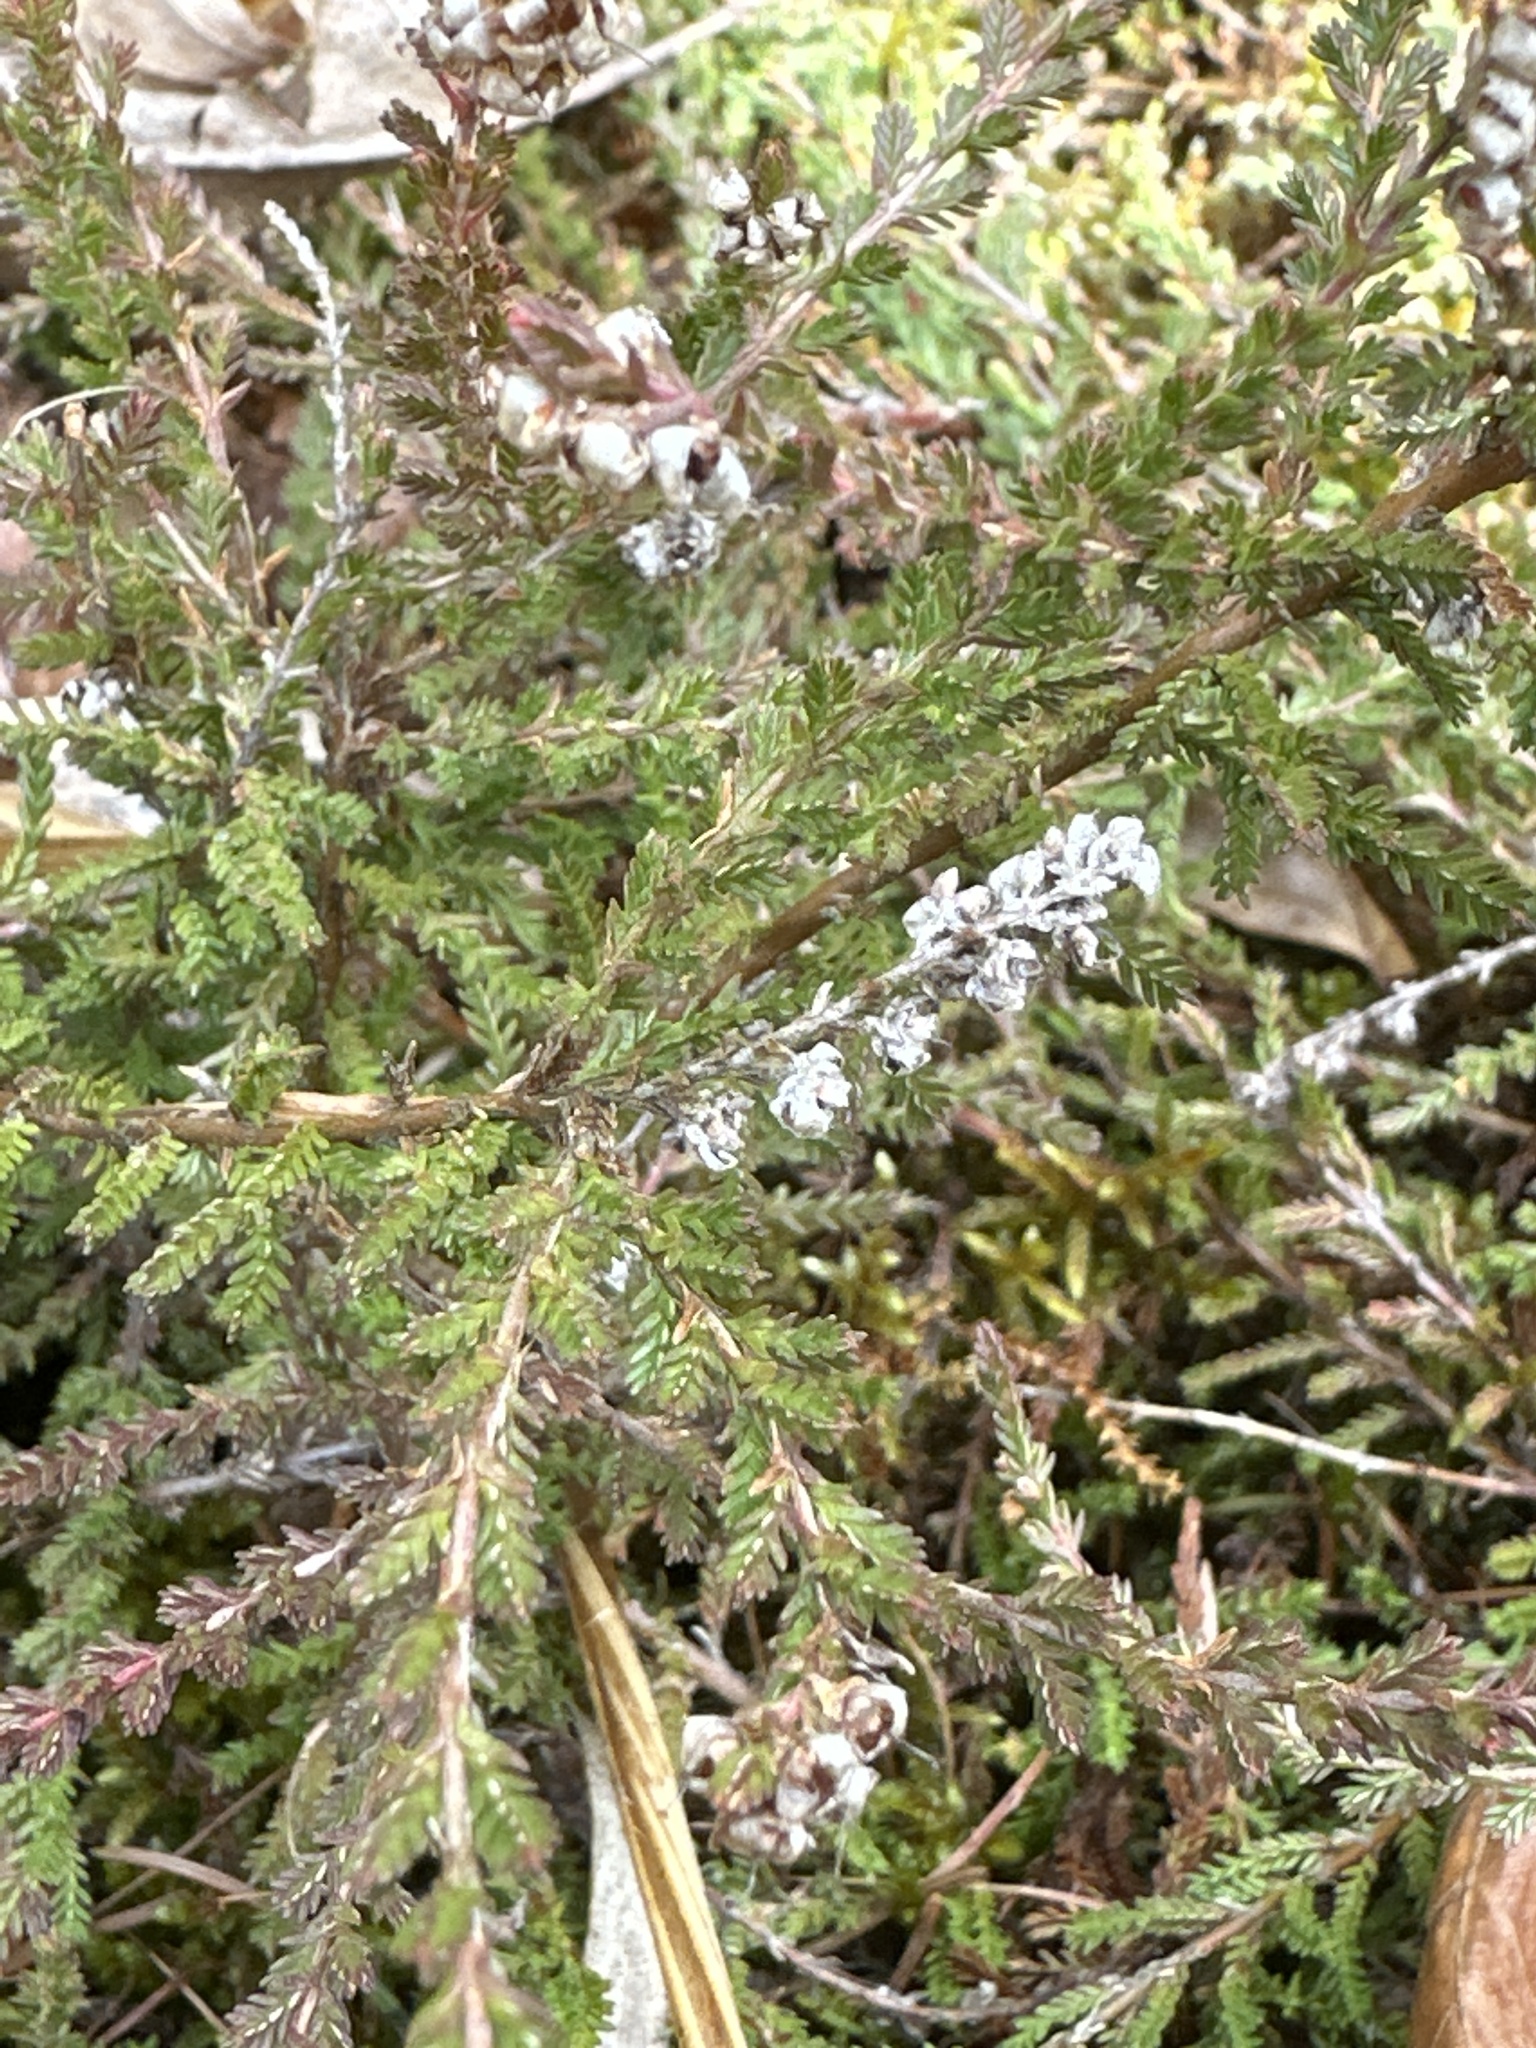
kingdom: Plantae
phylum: Tracheophyta
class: Magnoliopsida
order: Ericales
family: Ericaceae
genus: Calluna
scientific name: Calluna vulgaris
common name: Heather
